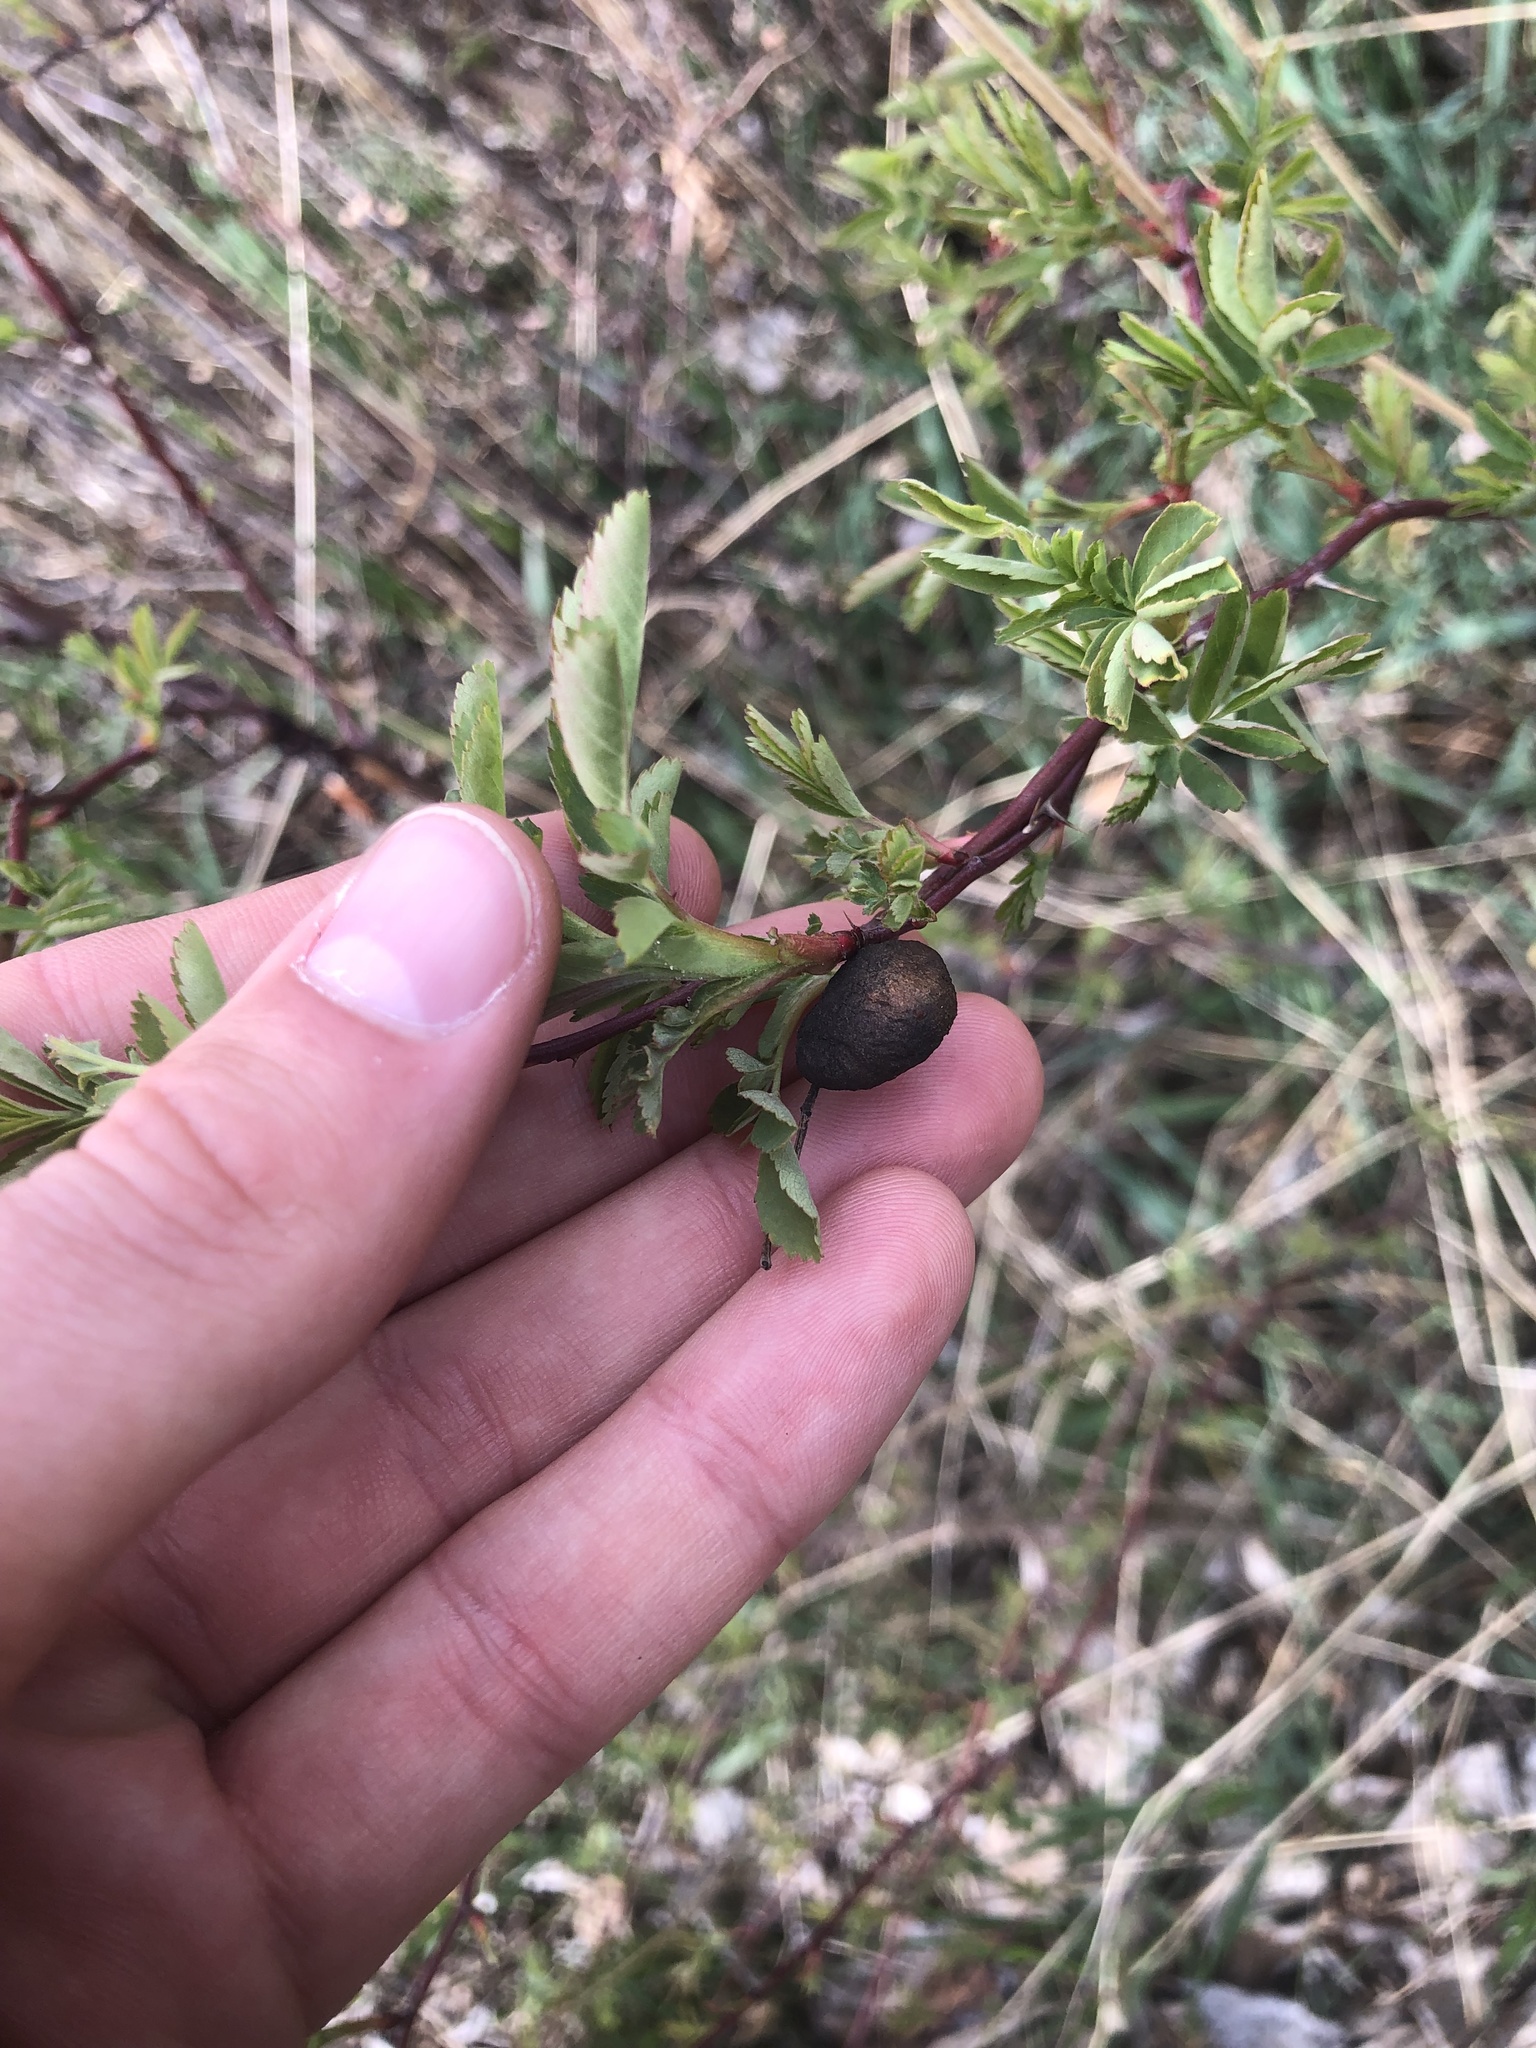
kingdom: Animalia
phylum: Arthropoda
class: Insecta
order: Hymenoptera
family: Cynipidae
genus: Diplolepis
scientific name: Diplolepis variabilis
